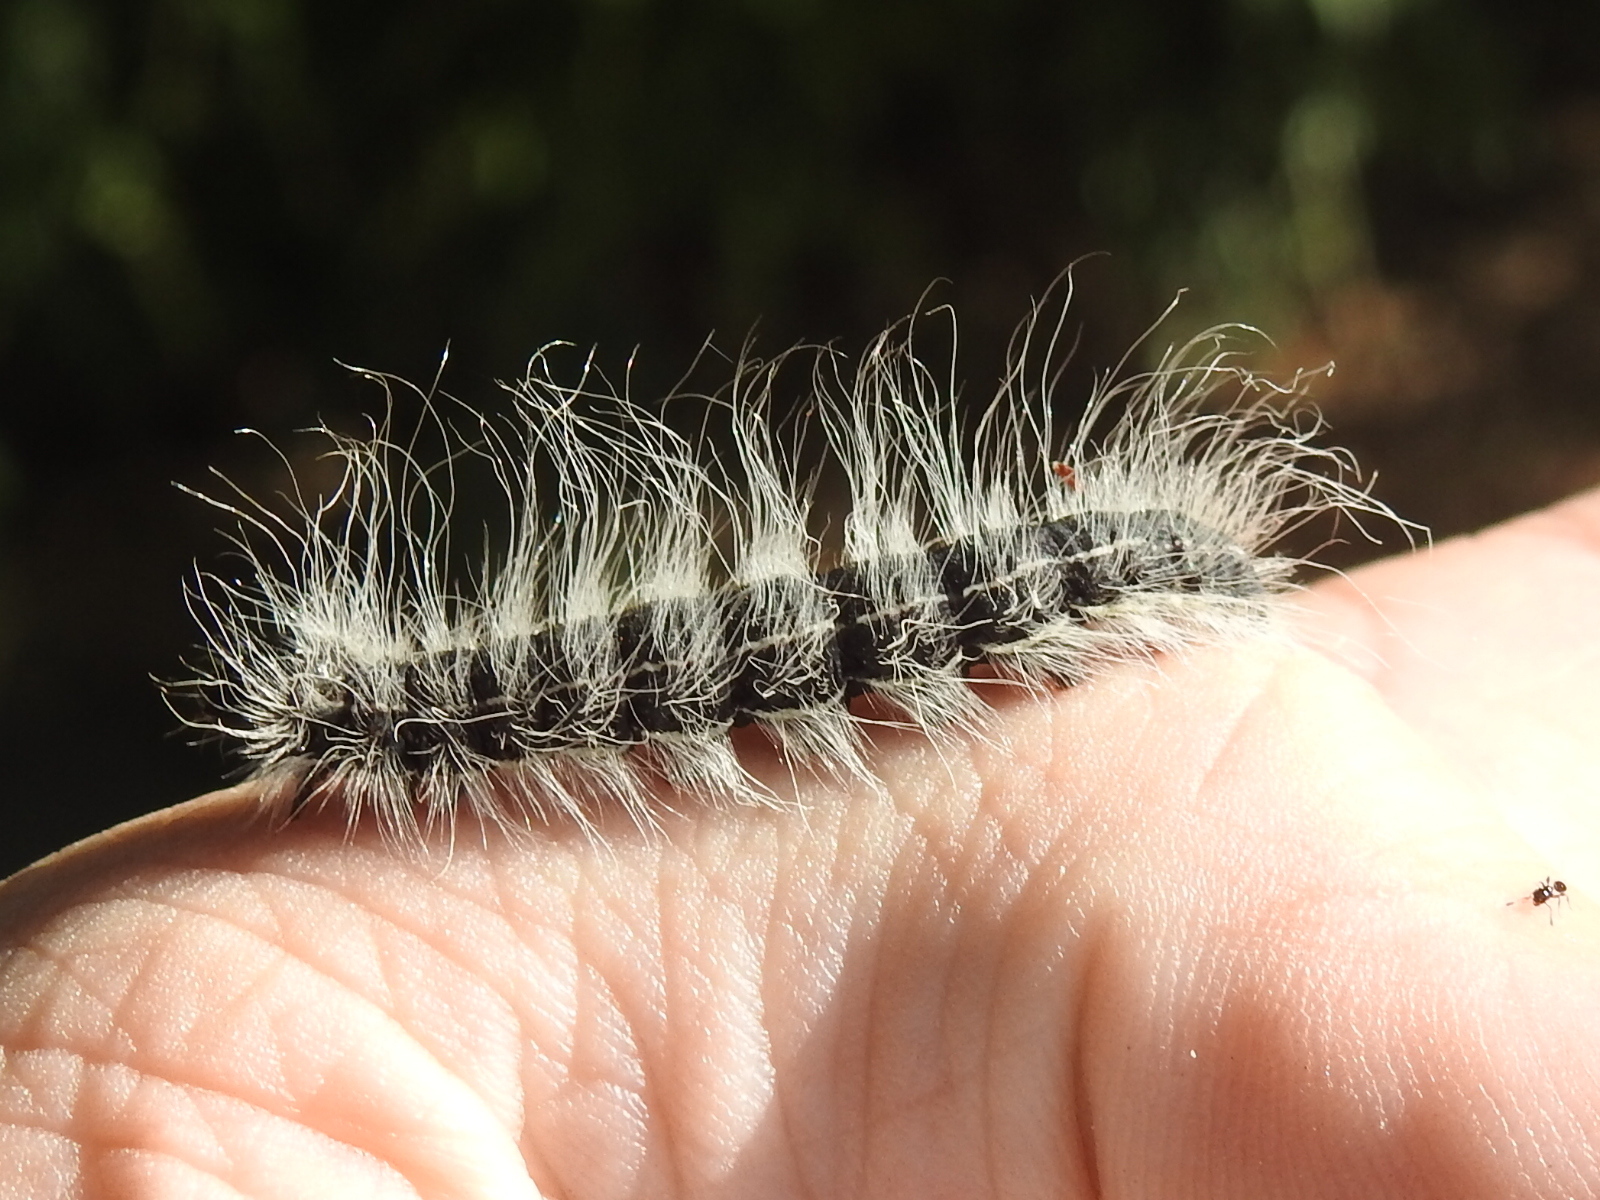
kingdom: Animalia
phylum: Arthropoda
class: Insecta
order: Lepidoptera
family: Notodontidae
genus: Datana
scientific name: Datana integerrima
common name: Walnut caterpillar
